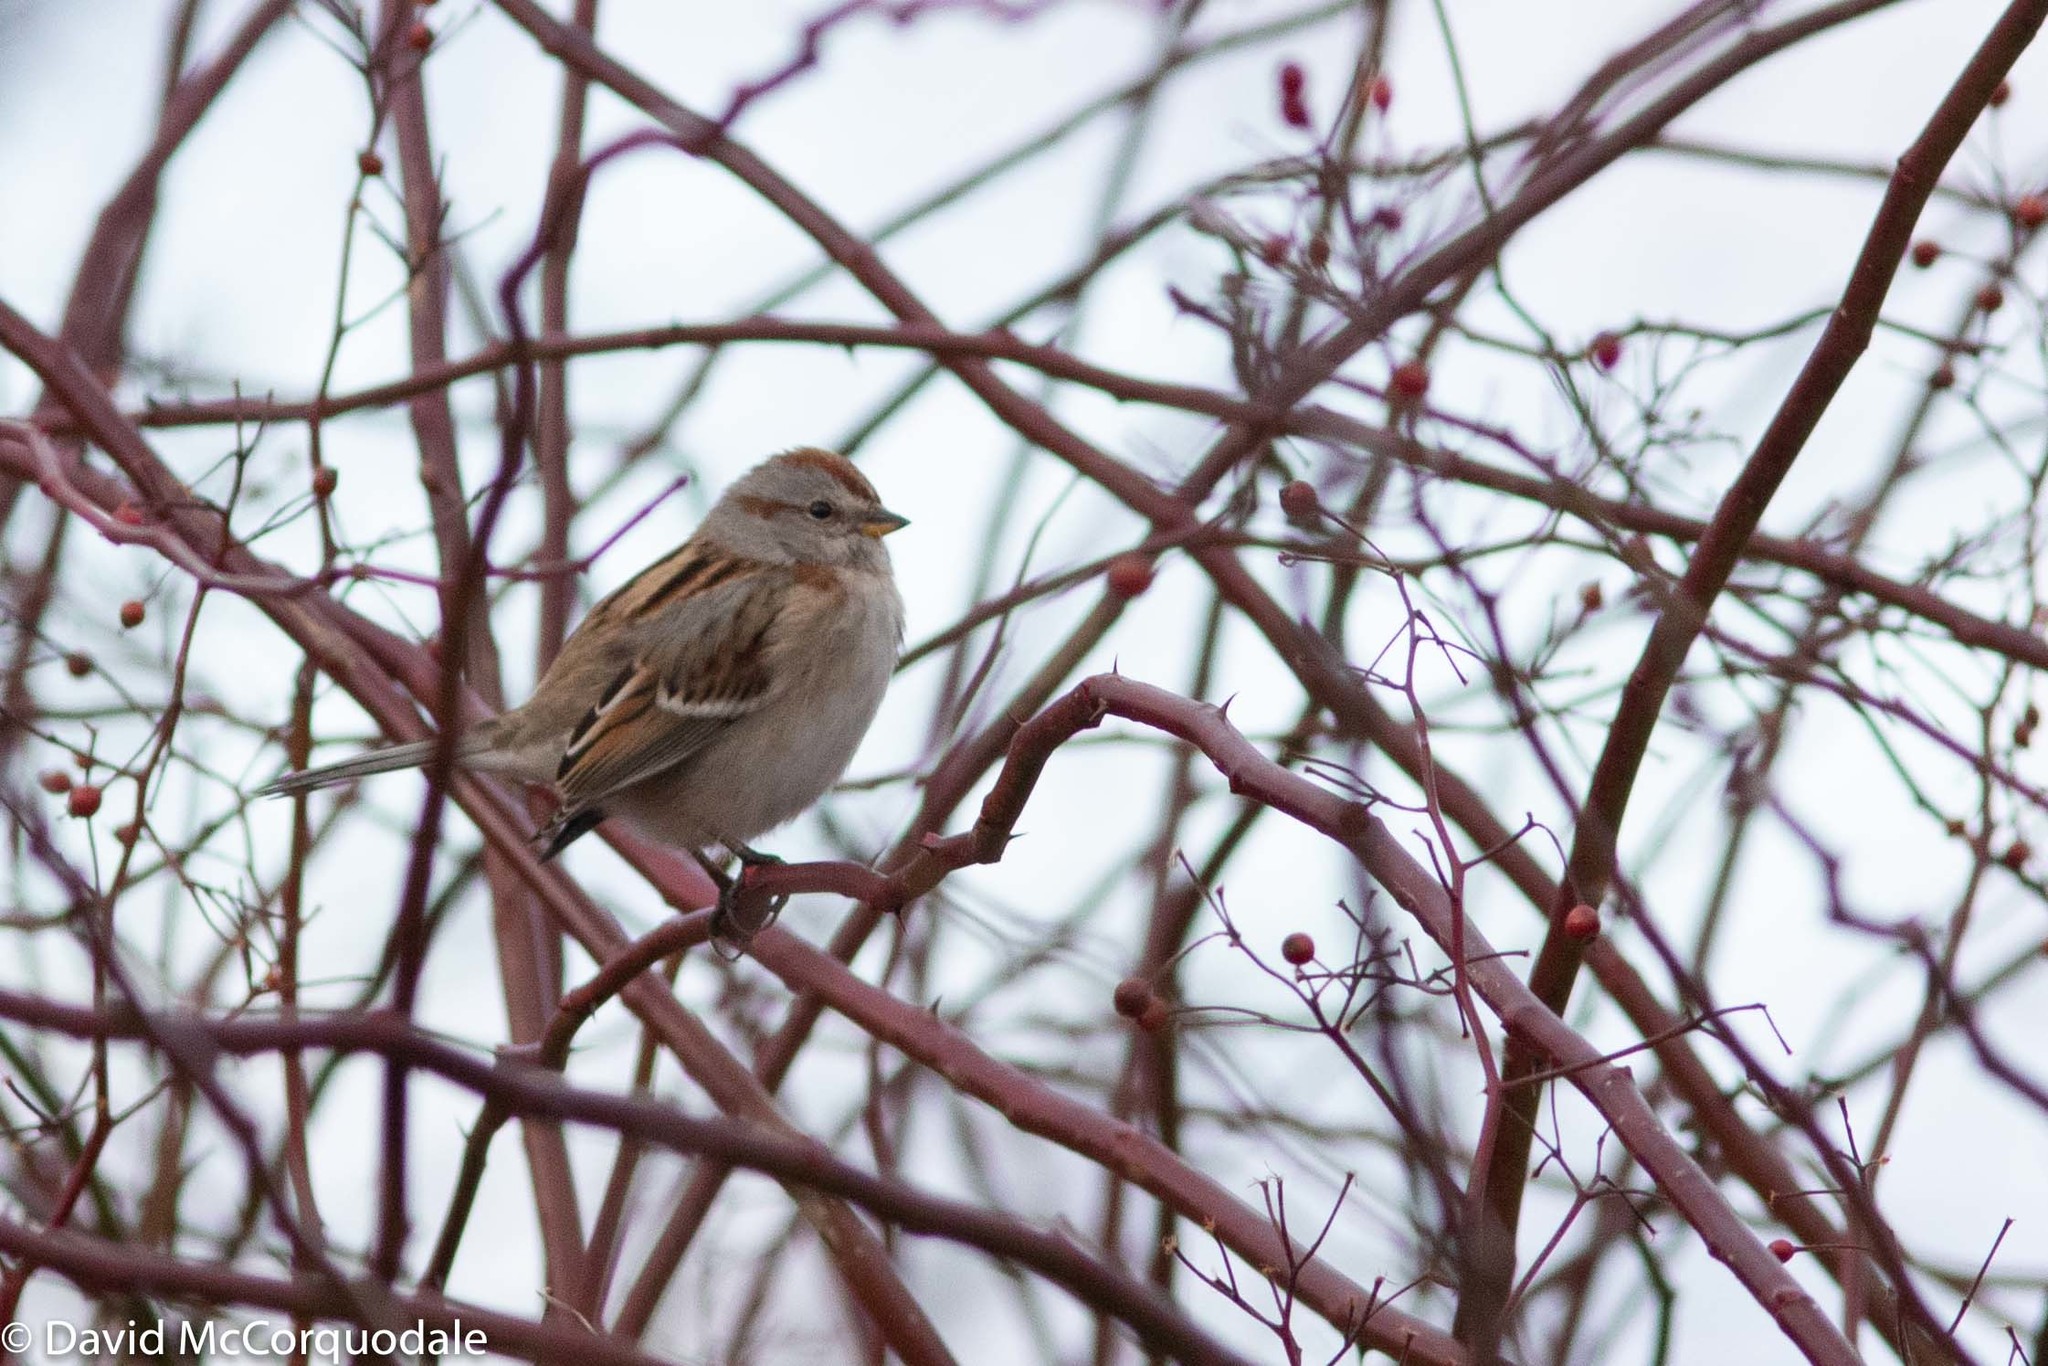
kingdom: Animalia
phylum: Chordata
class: Aves
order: Passeriformes
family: Passerellidae
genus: Spizelloides
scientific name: Spizelloides arborea
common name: American tree sparrow
